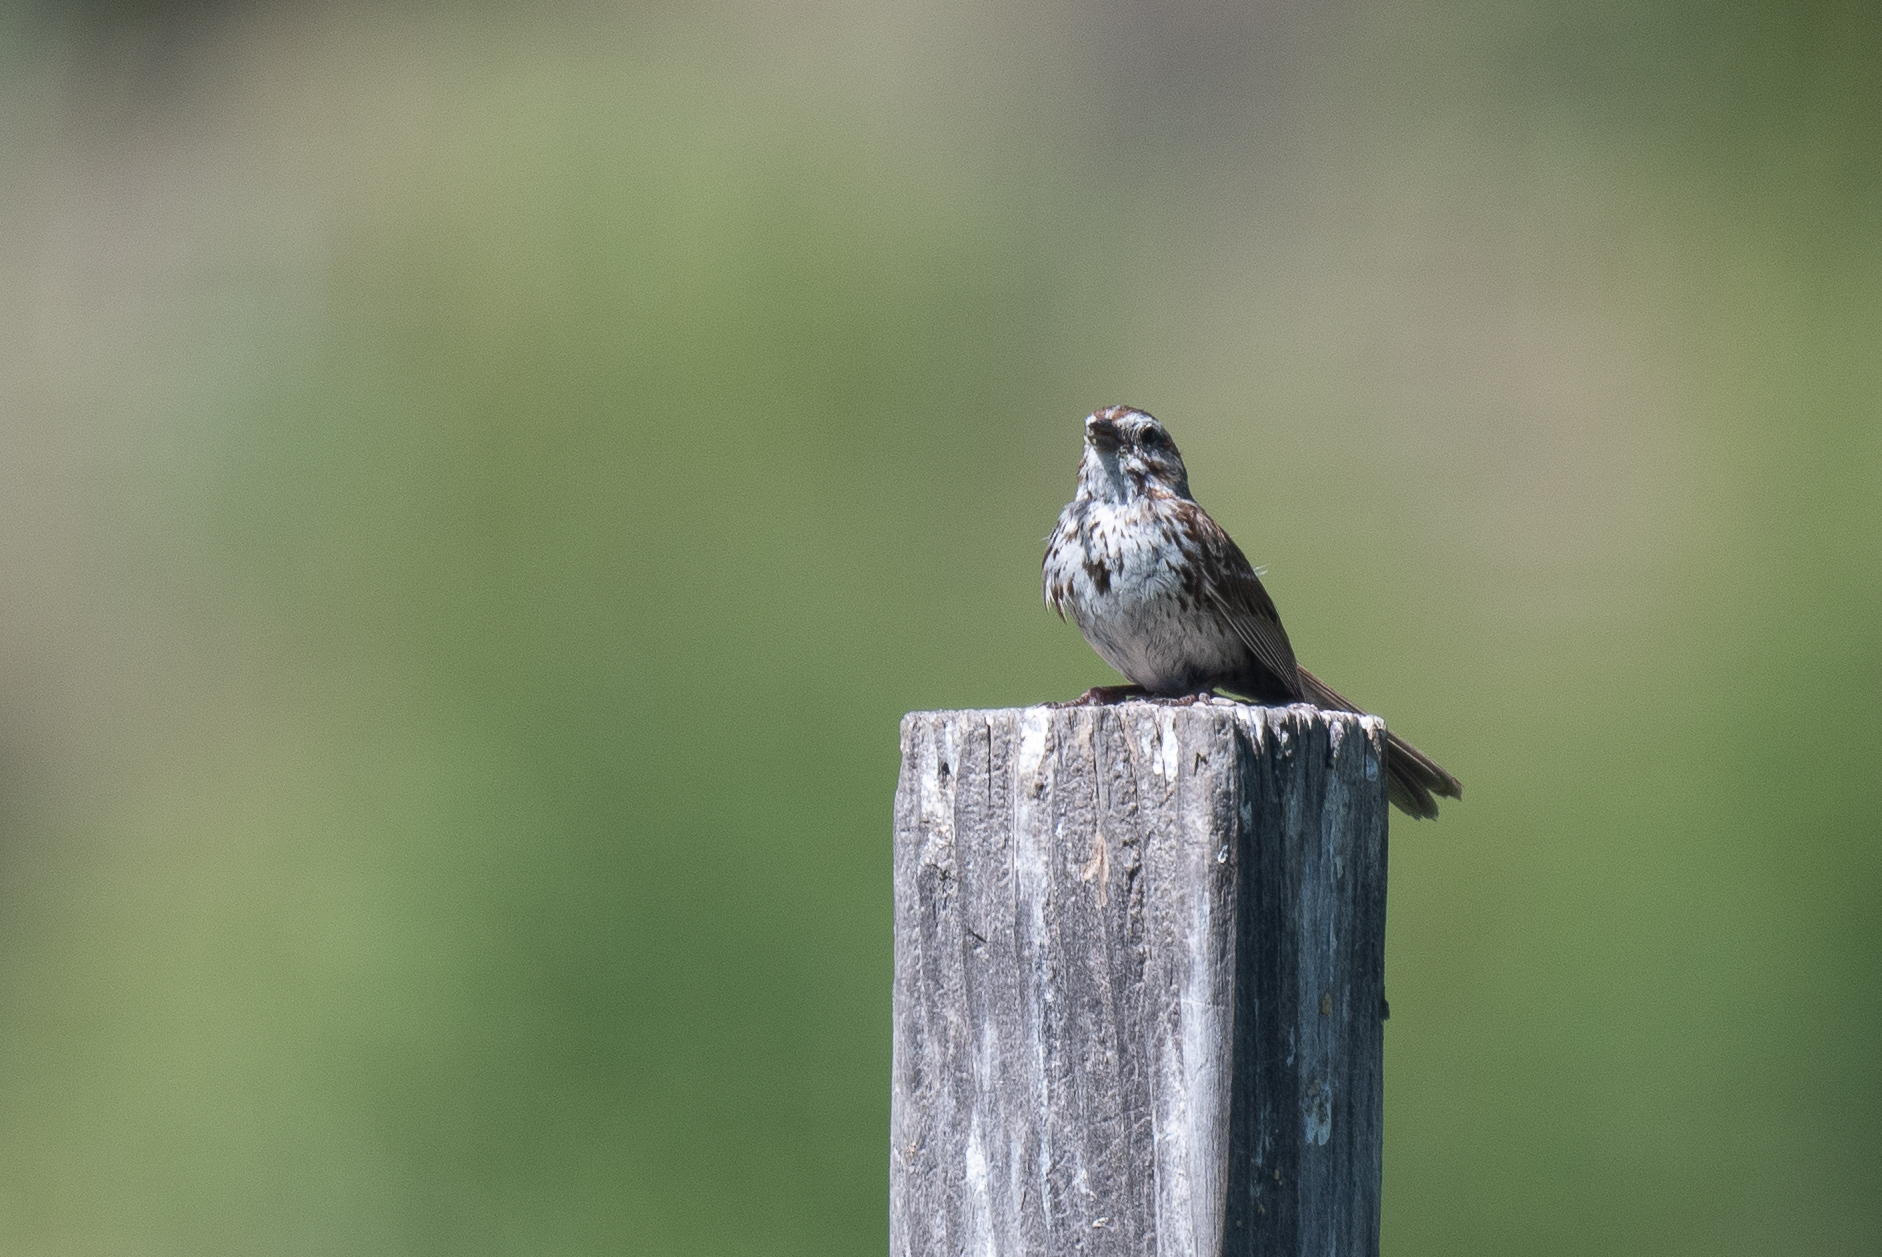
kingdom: Animalia
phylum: Chordata
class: Aves
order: Passeriformes
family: Passerellidae
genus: Melospiza
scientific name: Melospiza melodia
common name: Song sparrow
